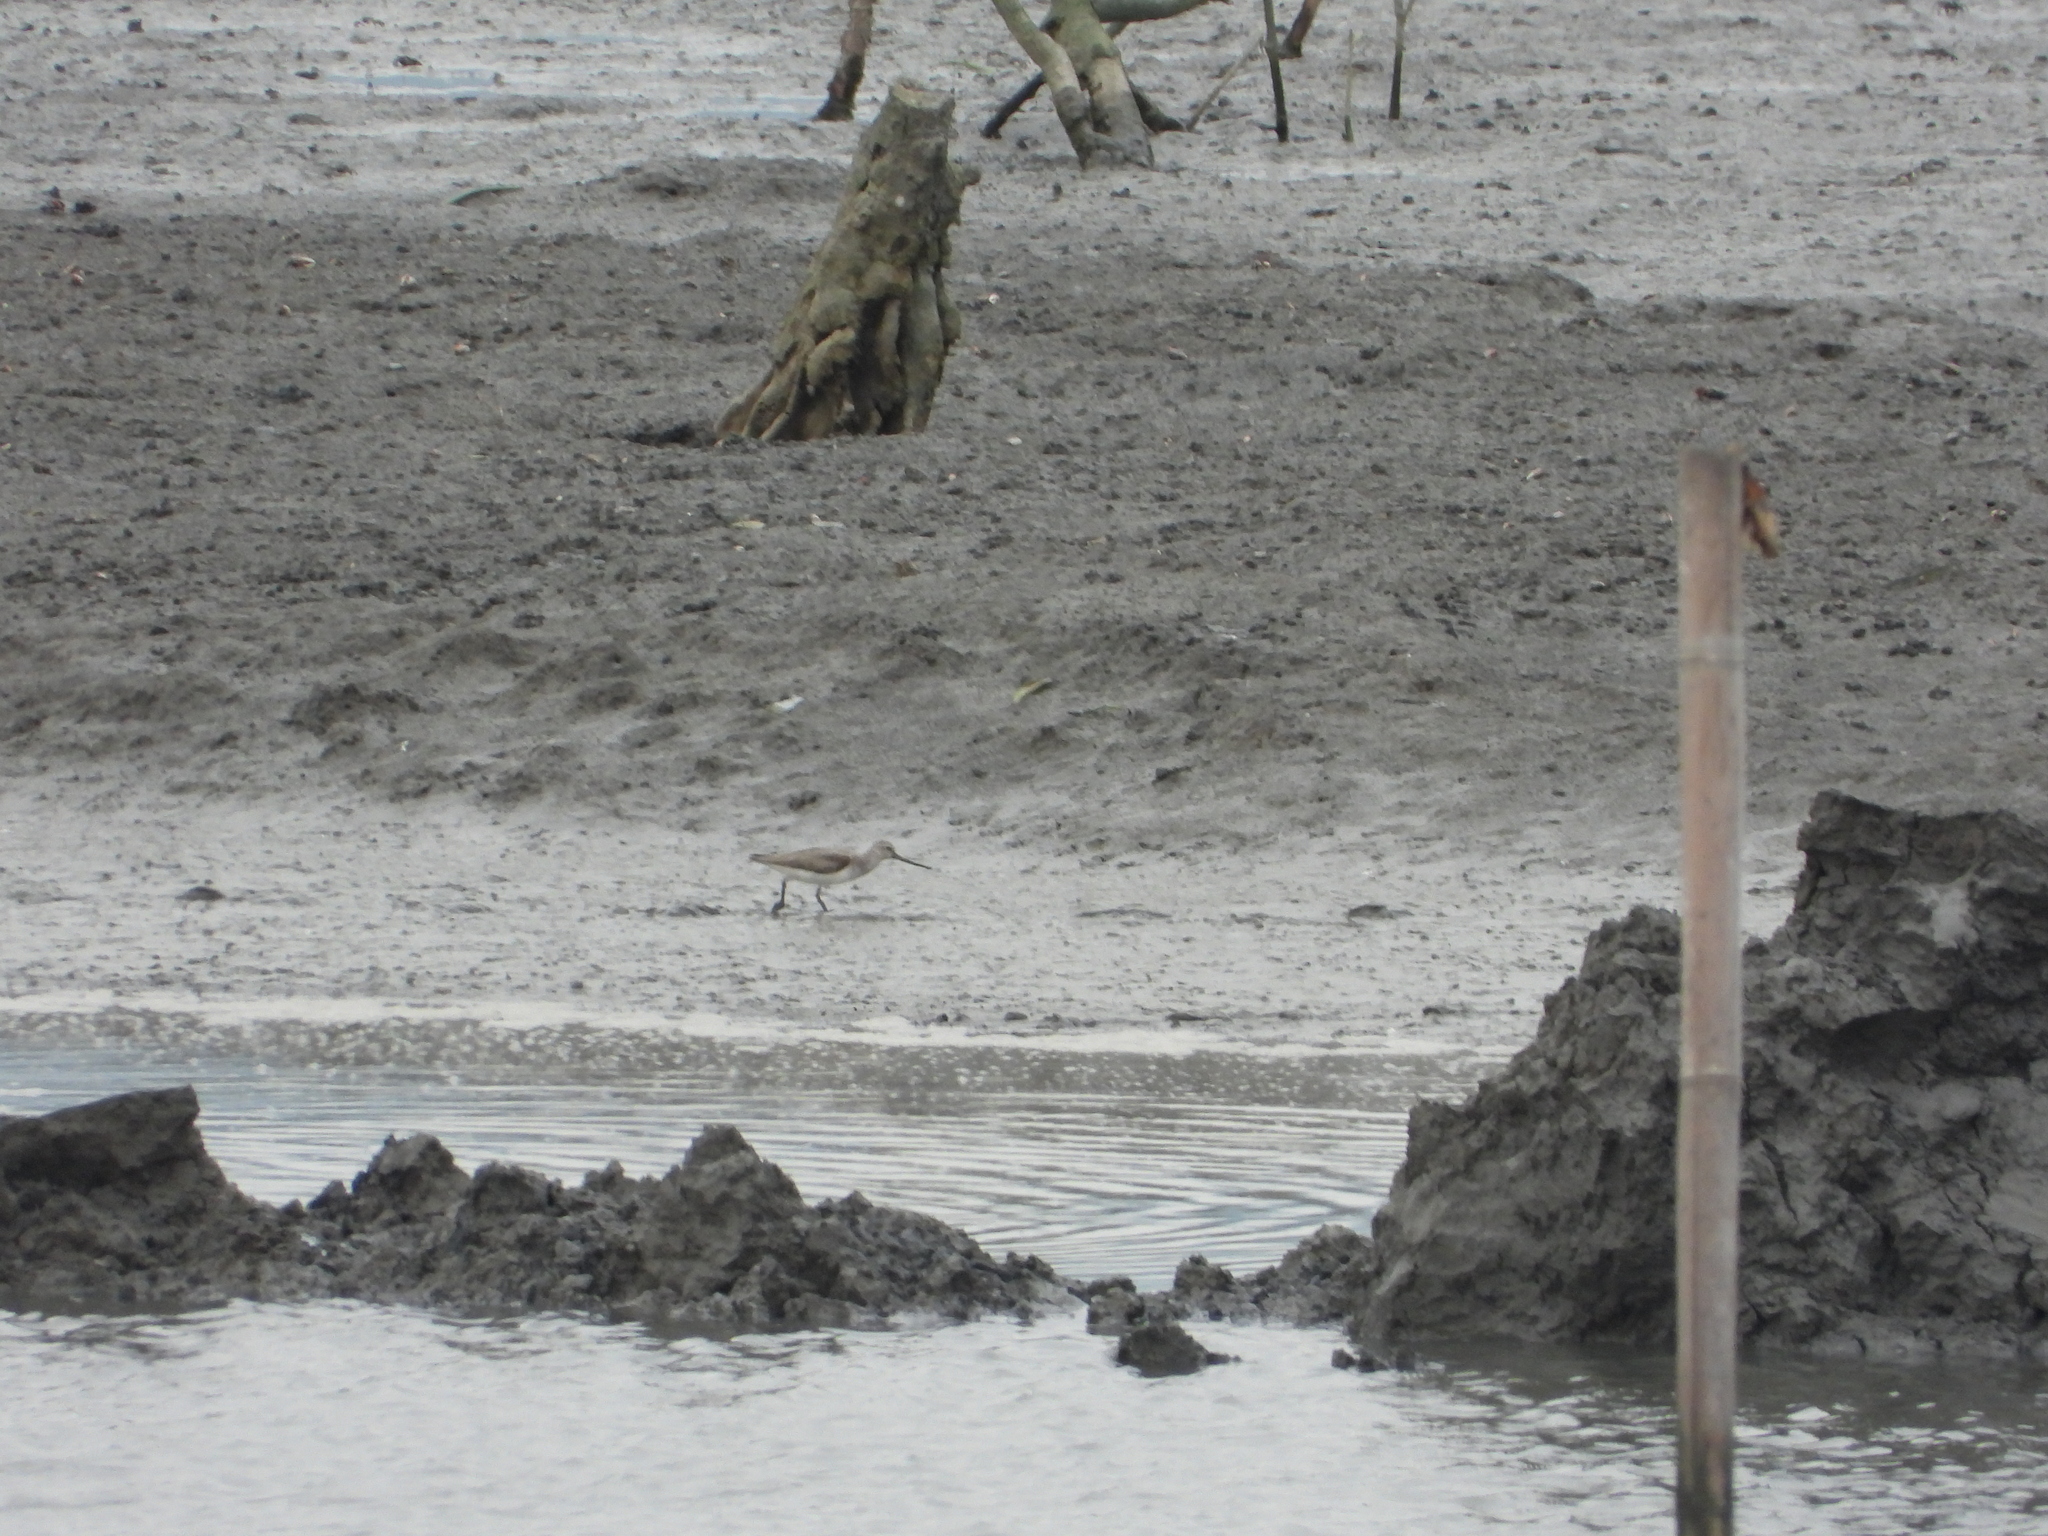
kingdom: Animalia
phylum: Chordata
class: Aves
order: Charadriiformes
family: Scolopacidae
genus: Xenus
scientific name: Xenus cinereus
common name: Terek sandpiper
